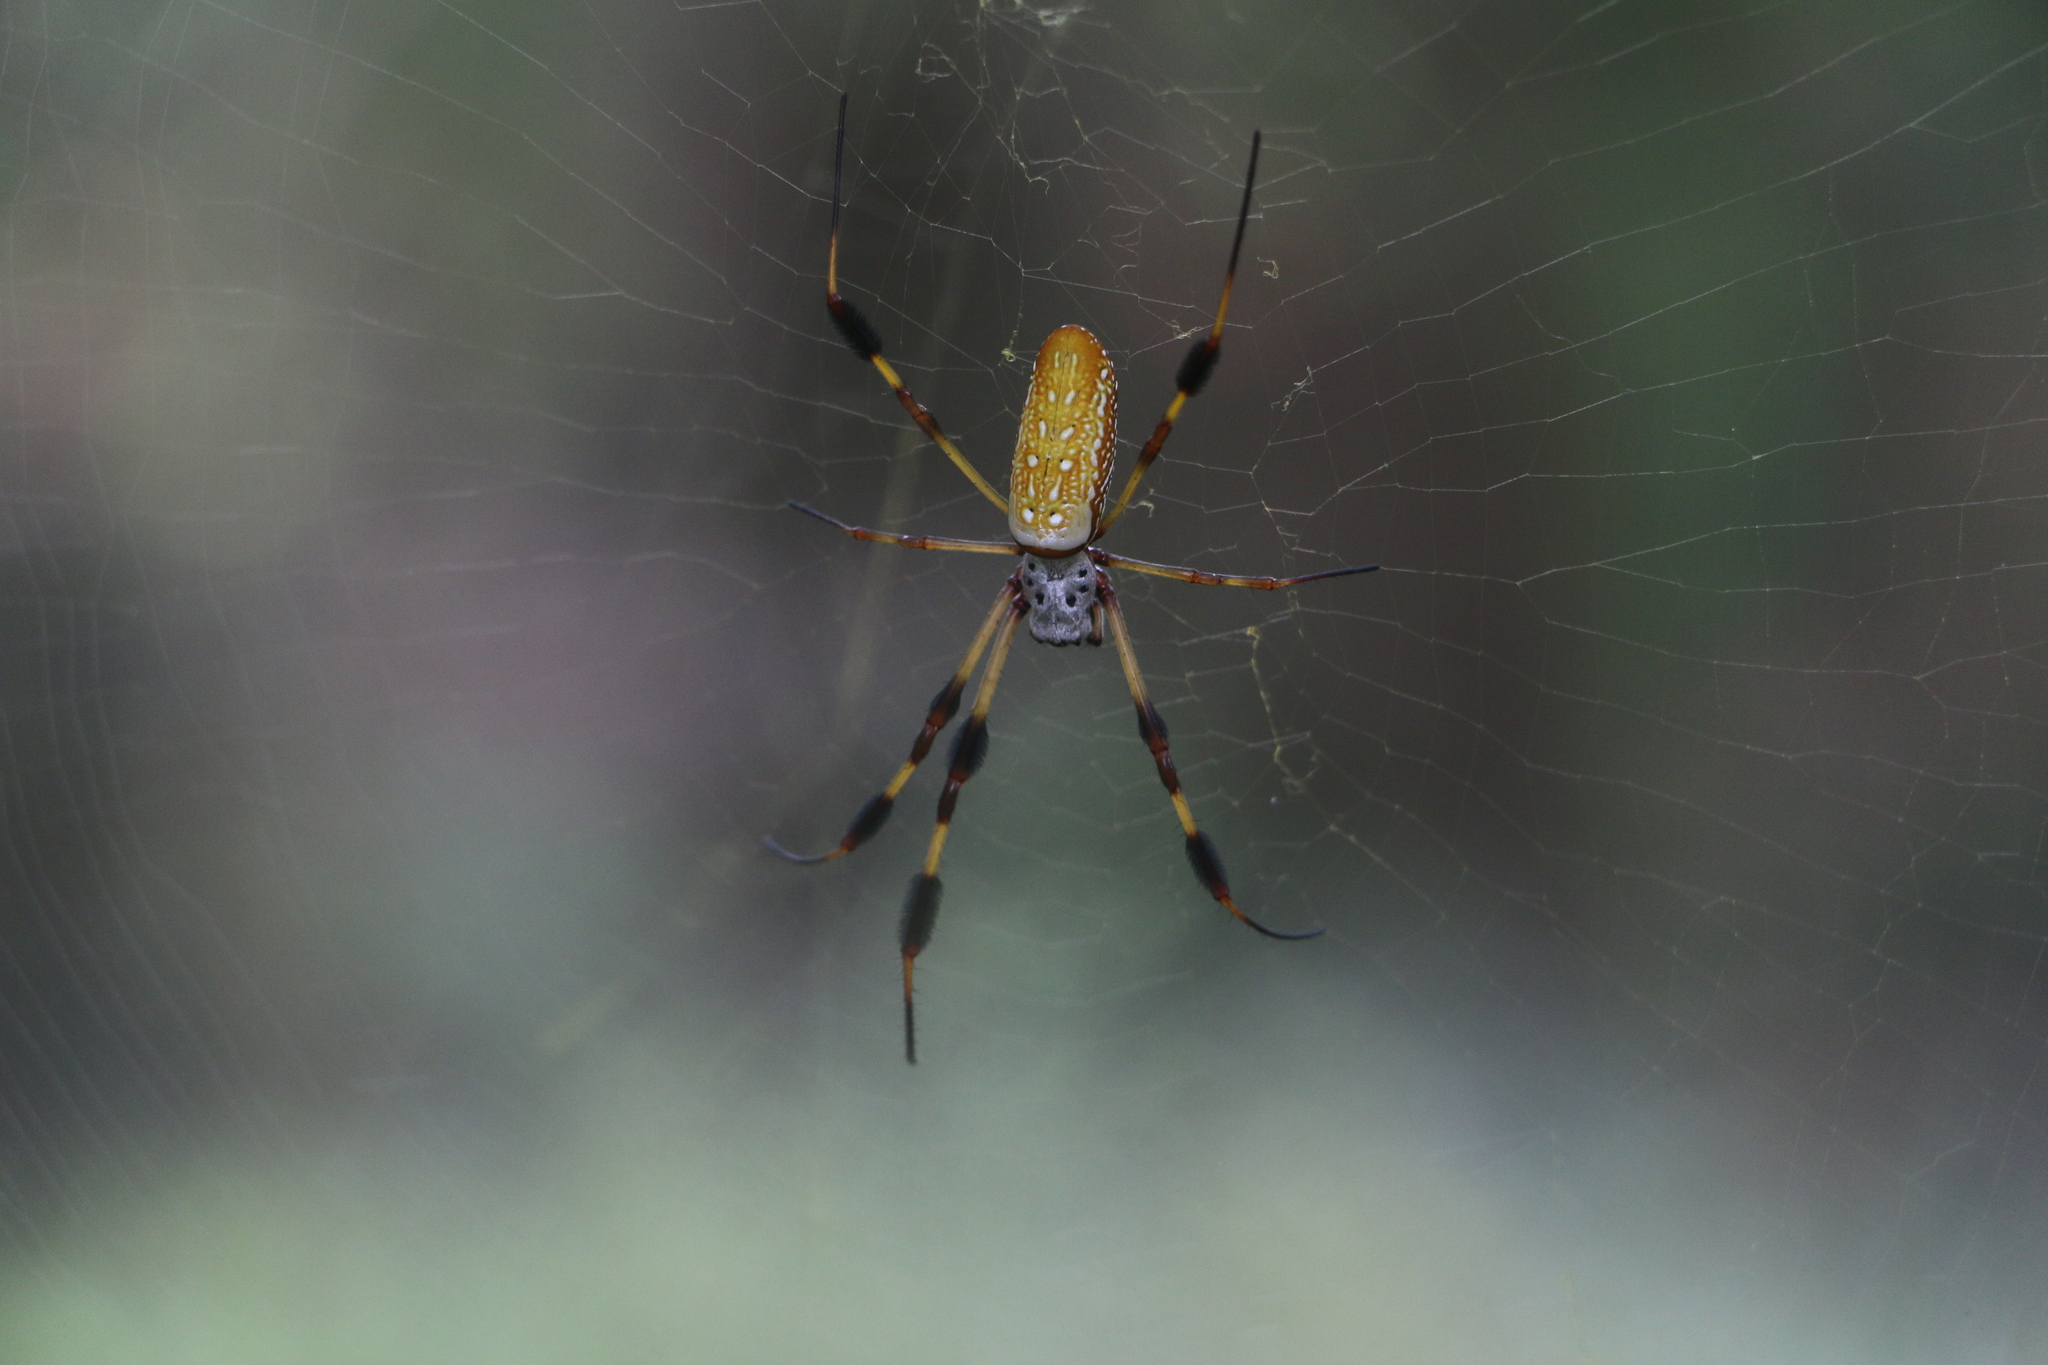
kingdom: Animalia
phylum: Arthropoda
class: Arachnida
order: Araneae
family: Araneidae
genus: Trichonephila
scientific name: Trichonephila clavipes
